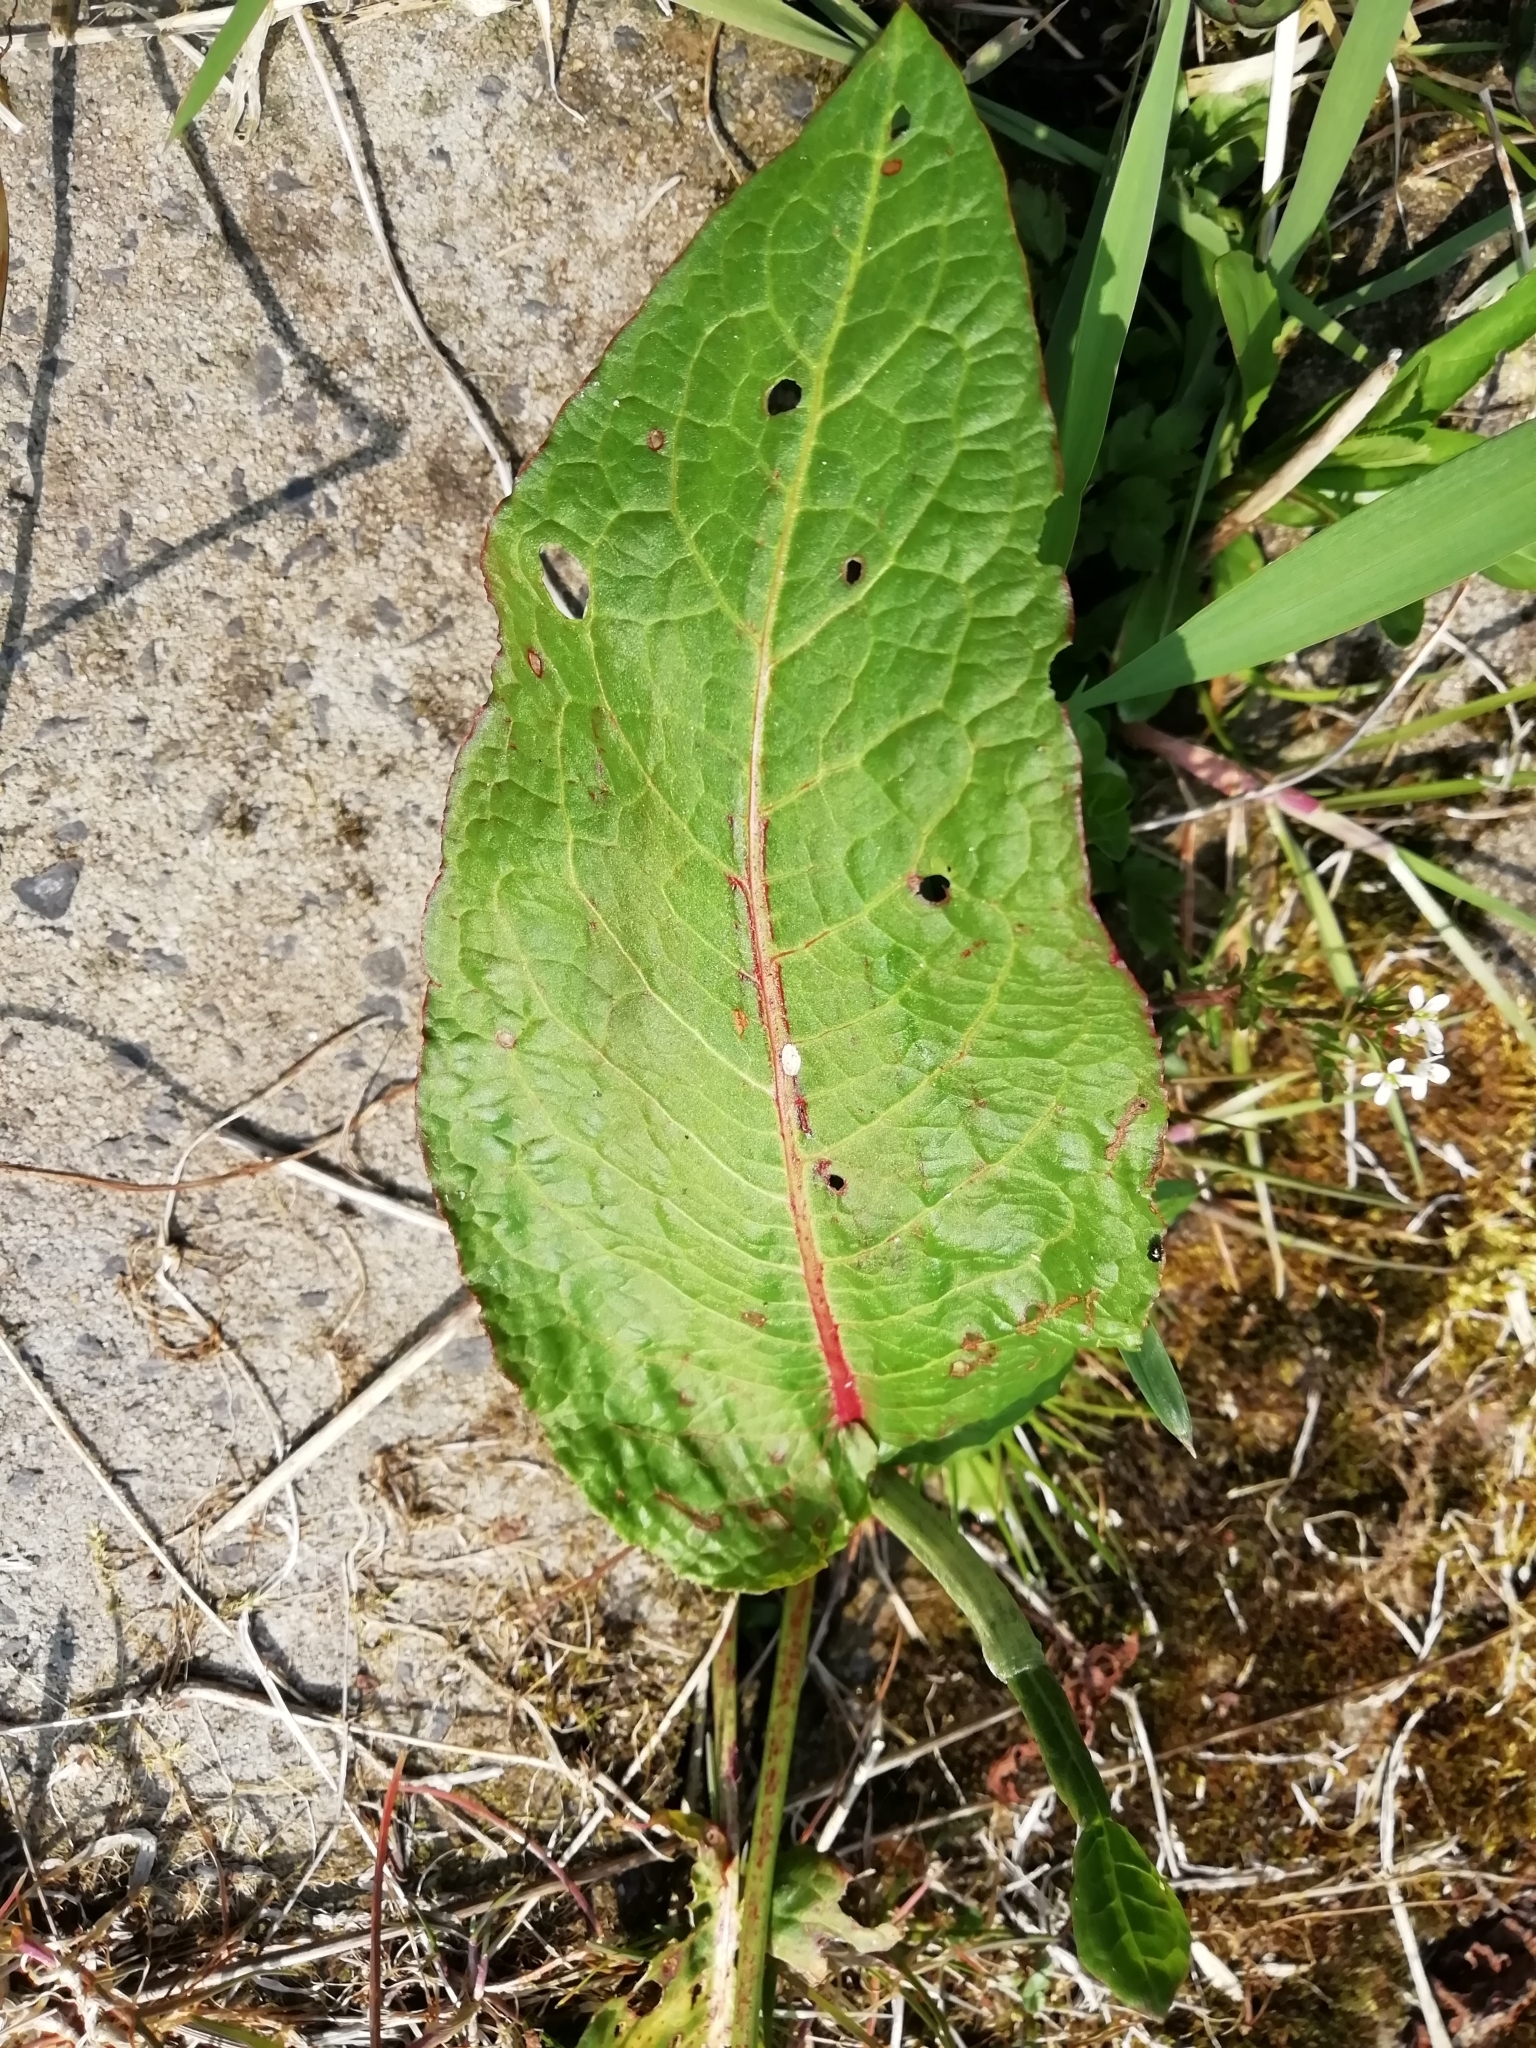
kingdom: Plantae
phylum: Tracheophyta
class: Magnoliopsida
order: Caryophyllales
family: Polygonaceae
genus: Rumex
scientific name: Rumex obtusifolius
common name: Bitter dock
